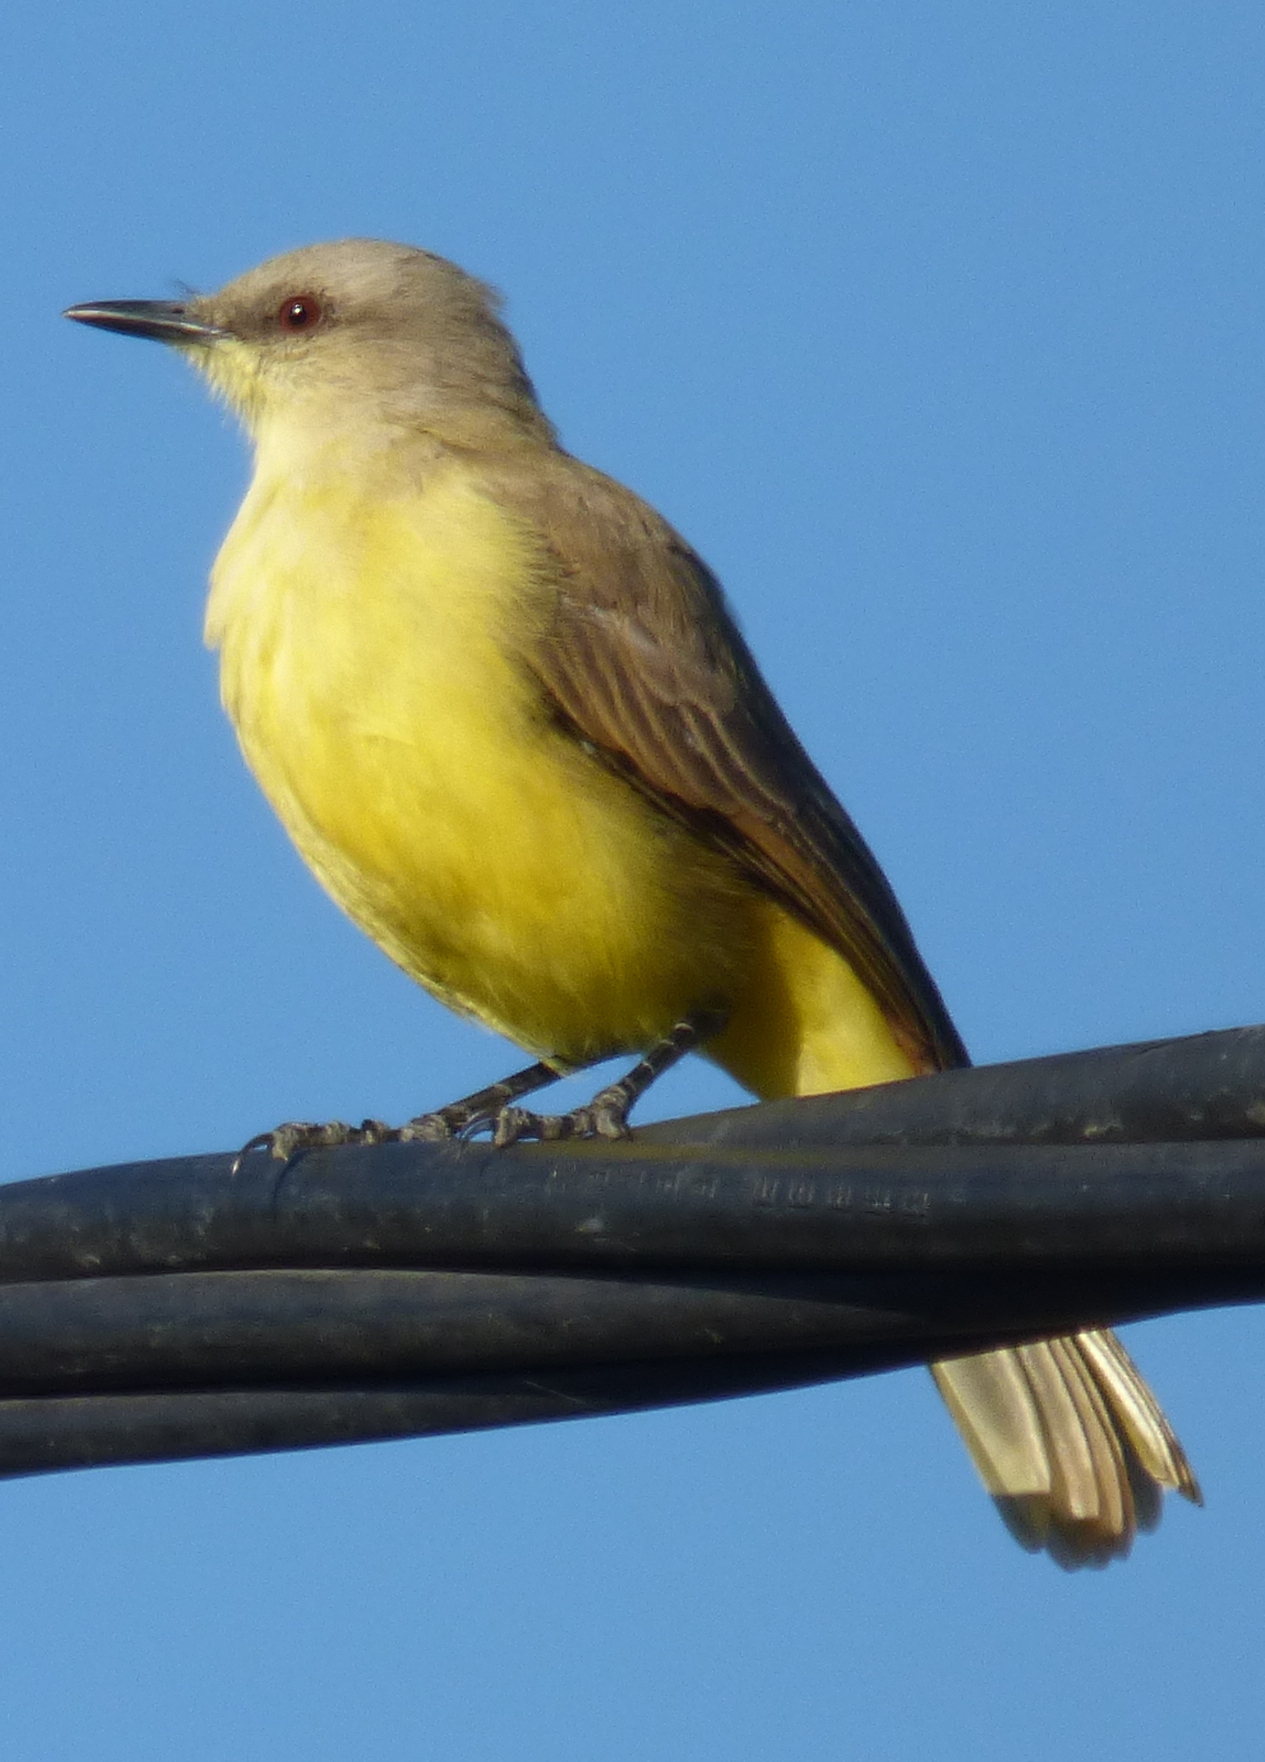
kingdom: Animalia
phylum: Chordata
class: Aves
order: Passeriformes
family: Tyrannidae
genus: Machetornis
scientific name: Machetornis rixosa
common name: Cattle tyrant
